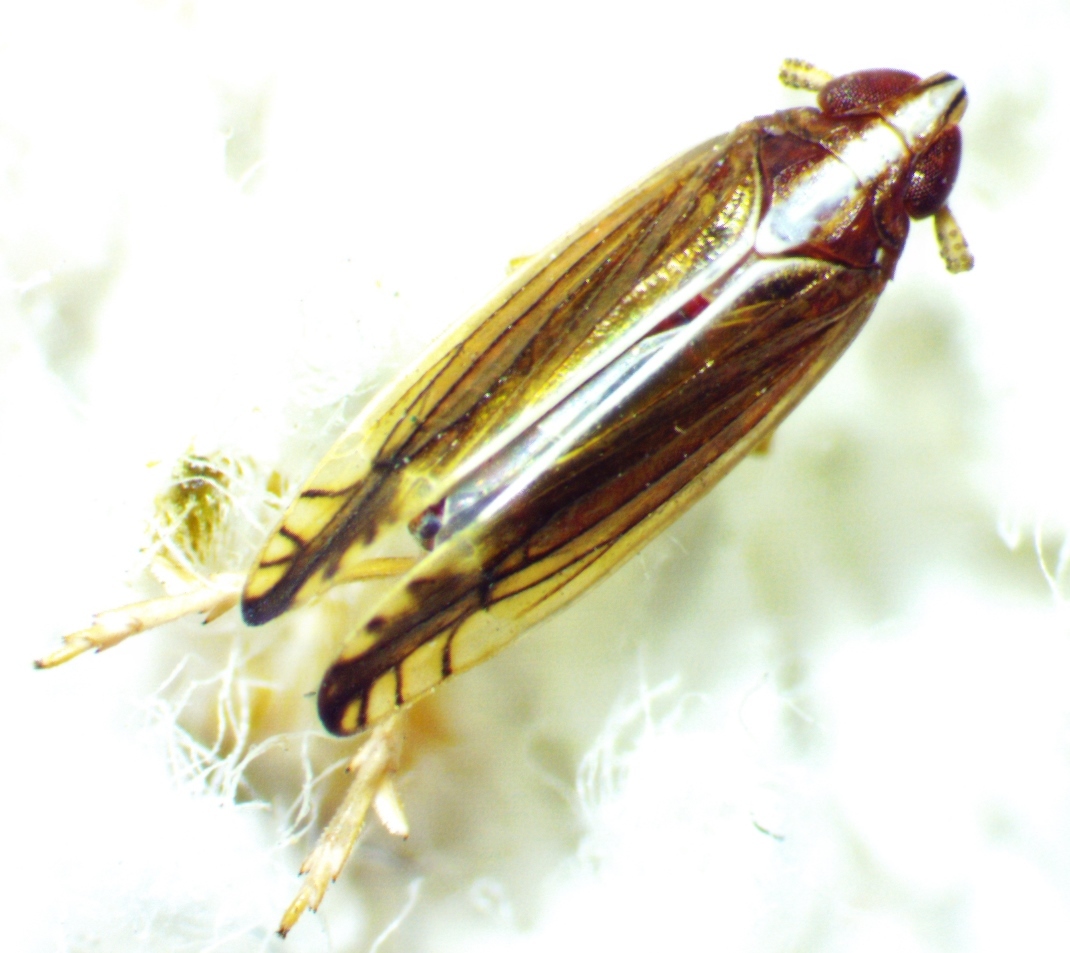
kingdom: Animalia
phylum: Arthropoda
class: Insecta
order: Hemiptera
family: Delphacidae
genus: Stenocranus
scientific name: Stenocranus brunneus
